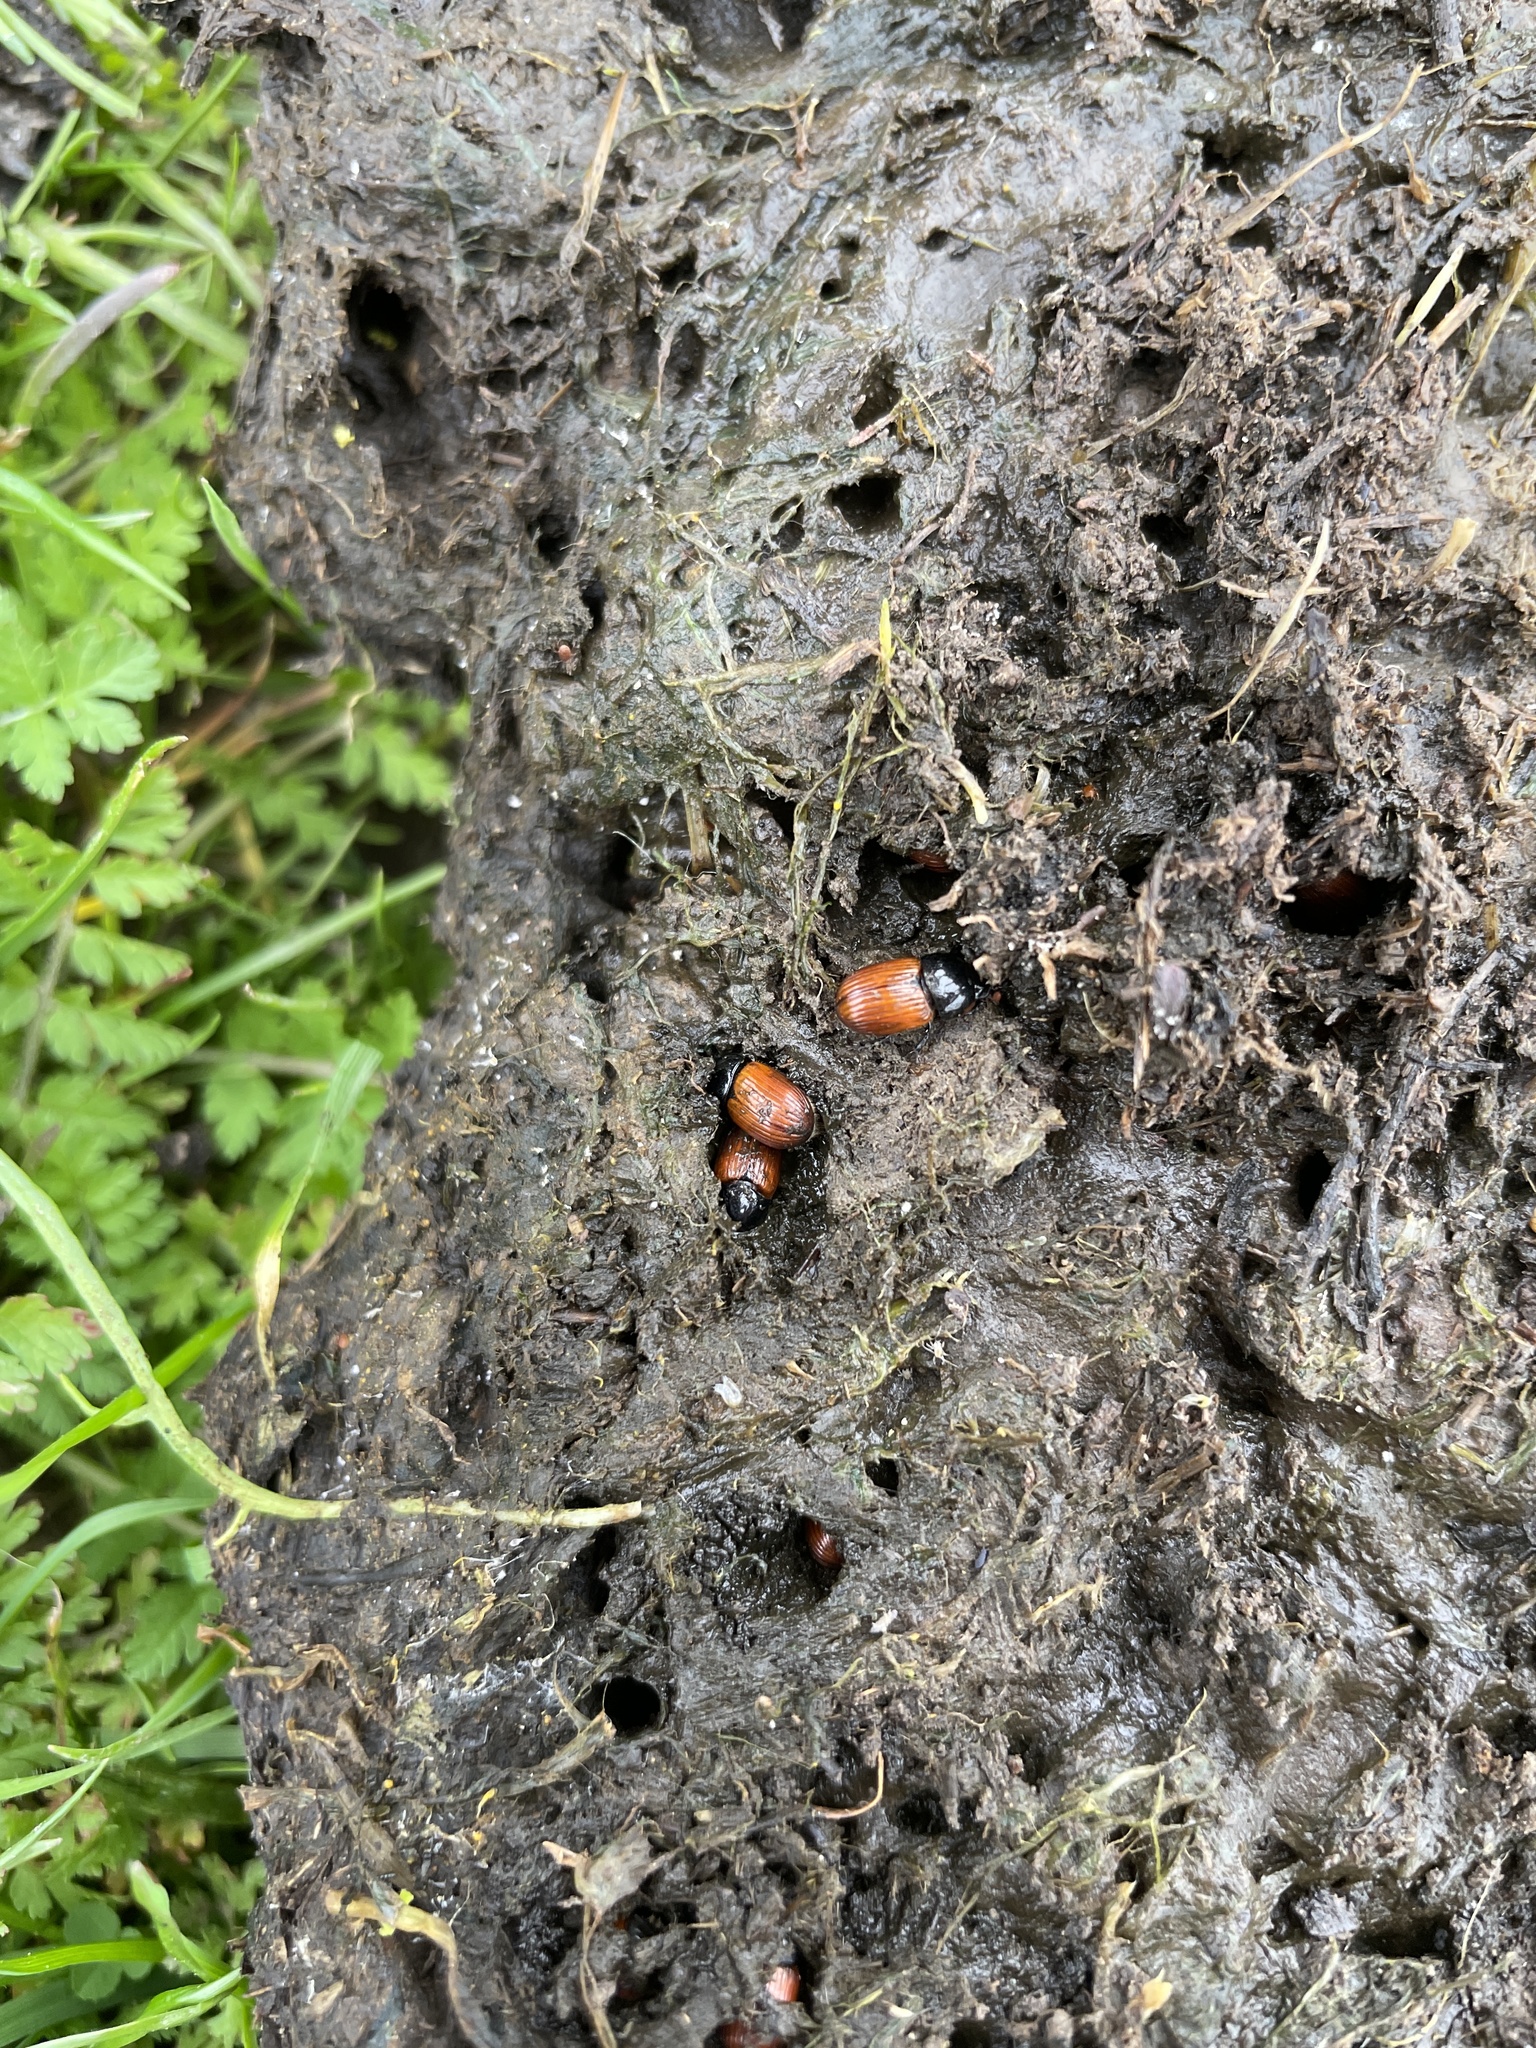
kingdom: Animalia
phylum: Arthropoda
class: Insecta
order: Coleoptera
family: Scarabaeidae
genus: Aphodius
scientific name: Aphodius fimetarius
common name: Common dung beetle
